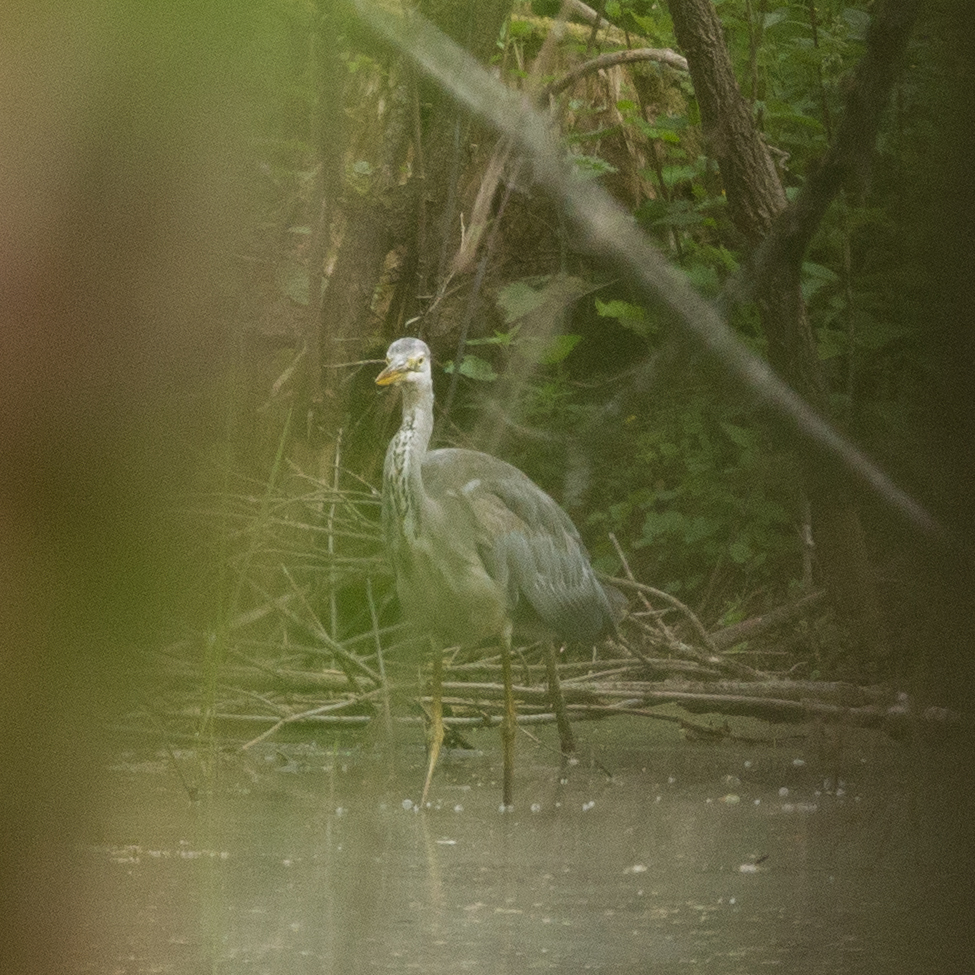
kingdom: Animalia
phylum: Chordata
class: Aves
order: Pelecaniformes
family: Ardeidae
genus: Ardea
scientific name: Ardea cinerea
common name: Grey heron
